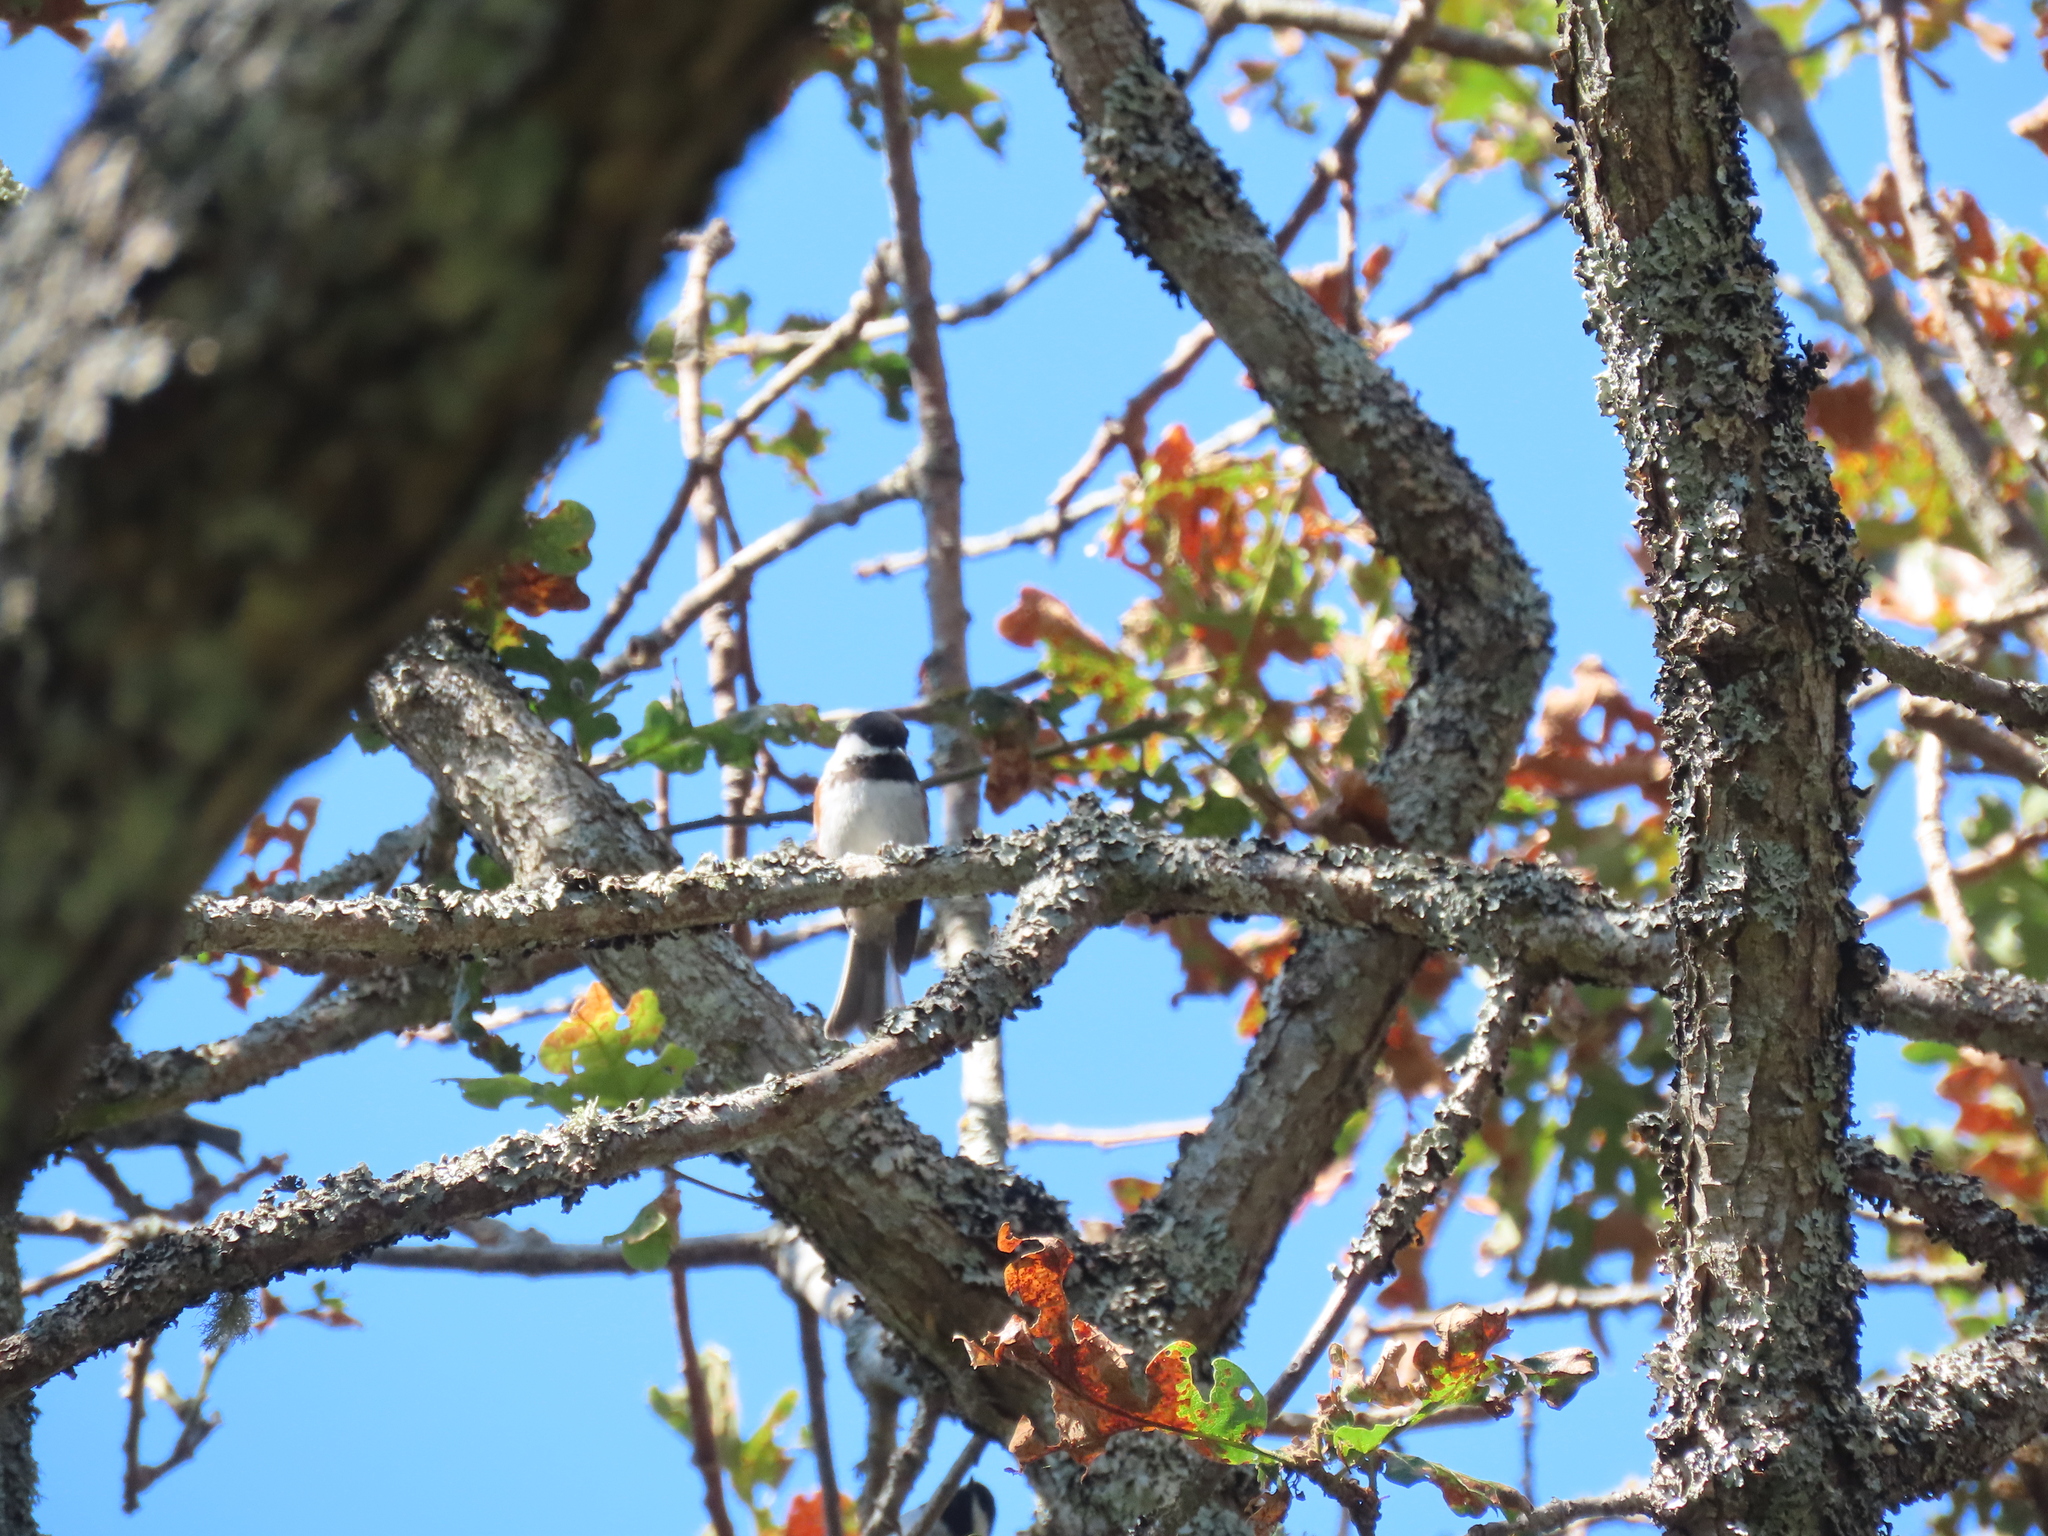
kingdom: Animalia
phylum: Chordata
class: Aves
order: Passeriformes
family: Paridae
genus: Poecile
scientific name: Poecile rufescens
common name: Chestnut-backed chickadee
